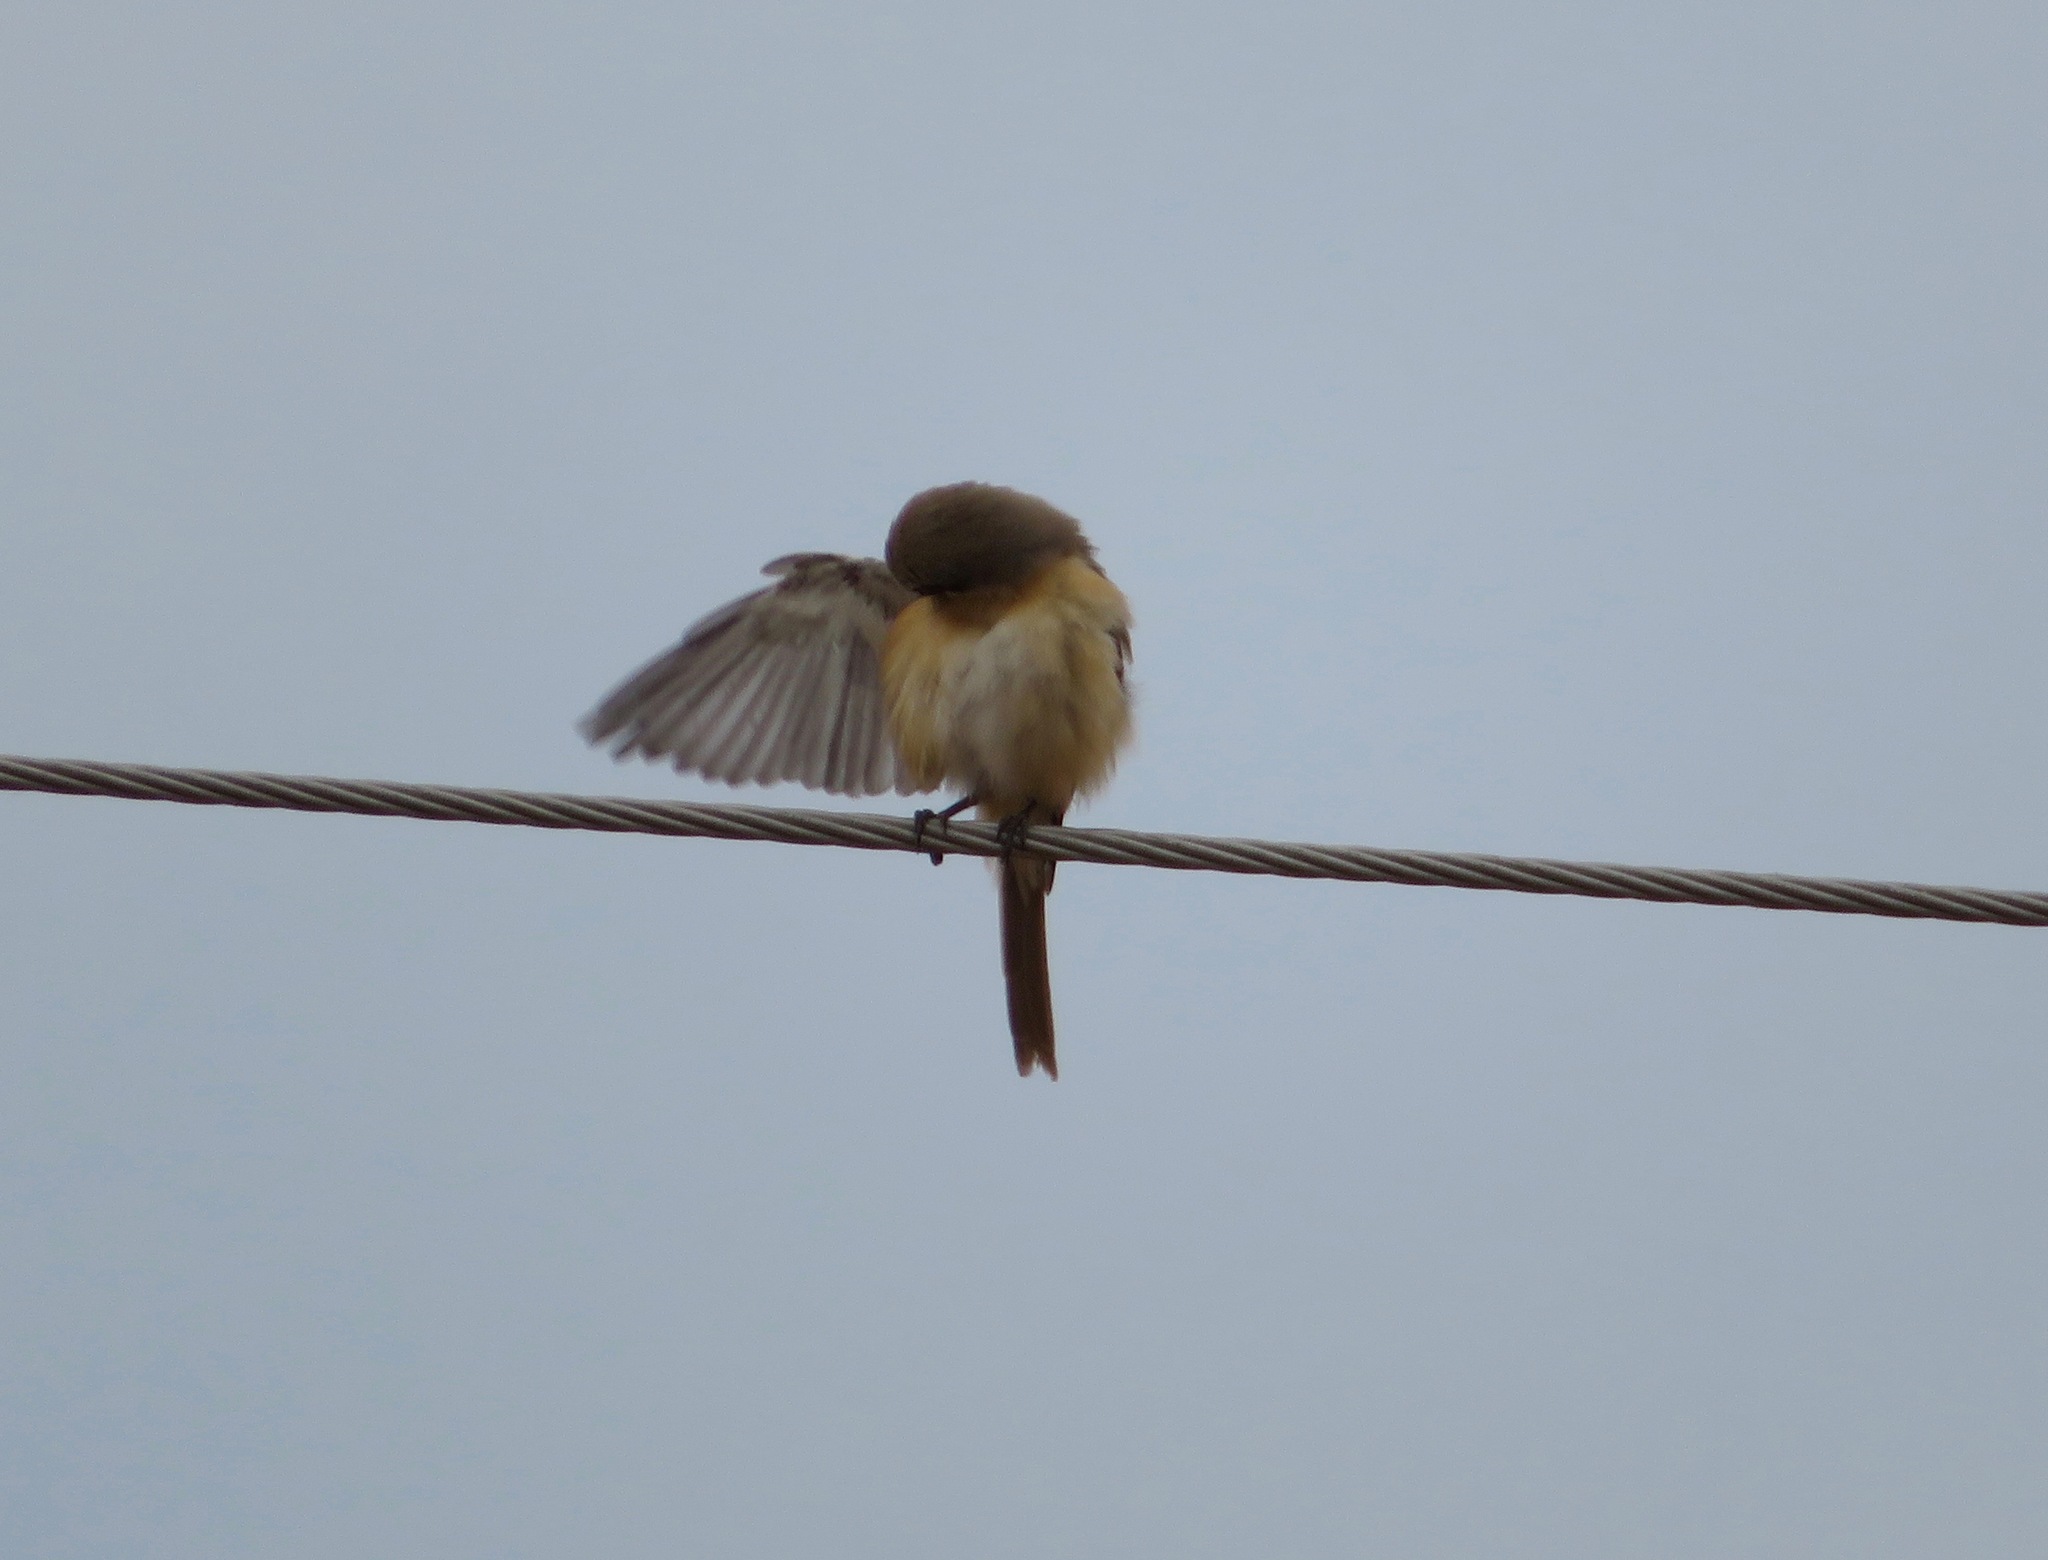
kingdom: Animalia
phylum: Chordata
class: Aves
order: Passeriformes
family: Laniidae
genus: Lanius
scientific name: Lanius cristatus
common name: Brown shrike
